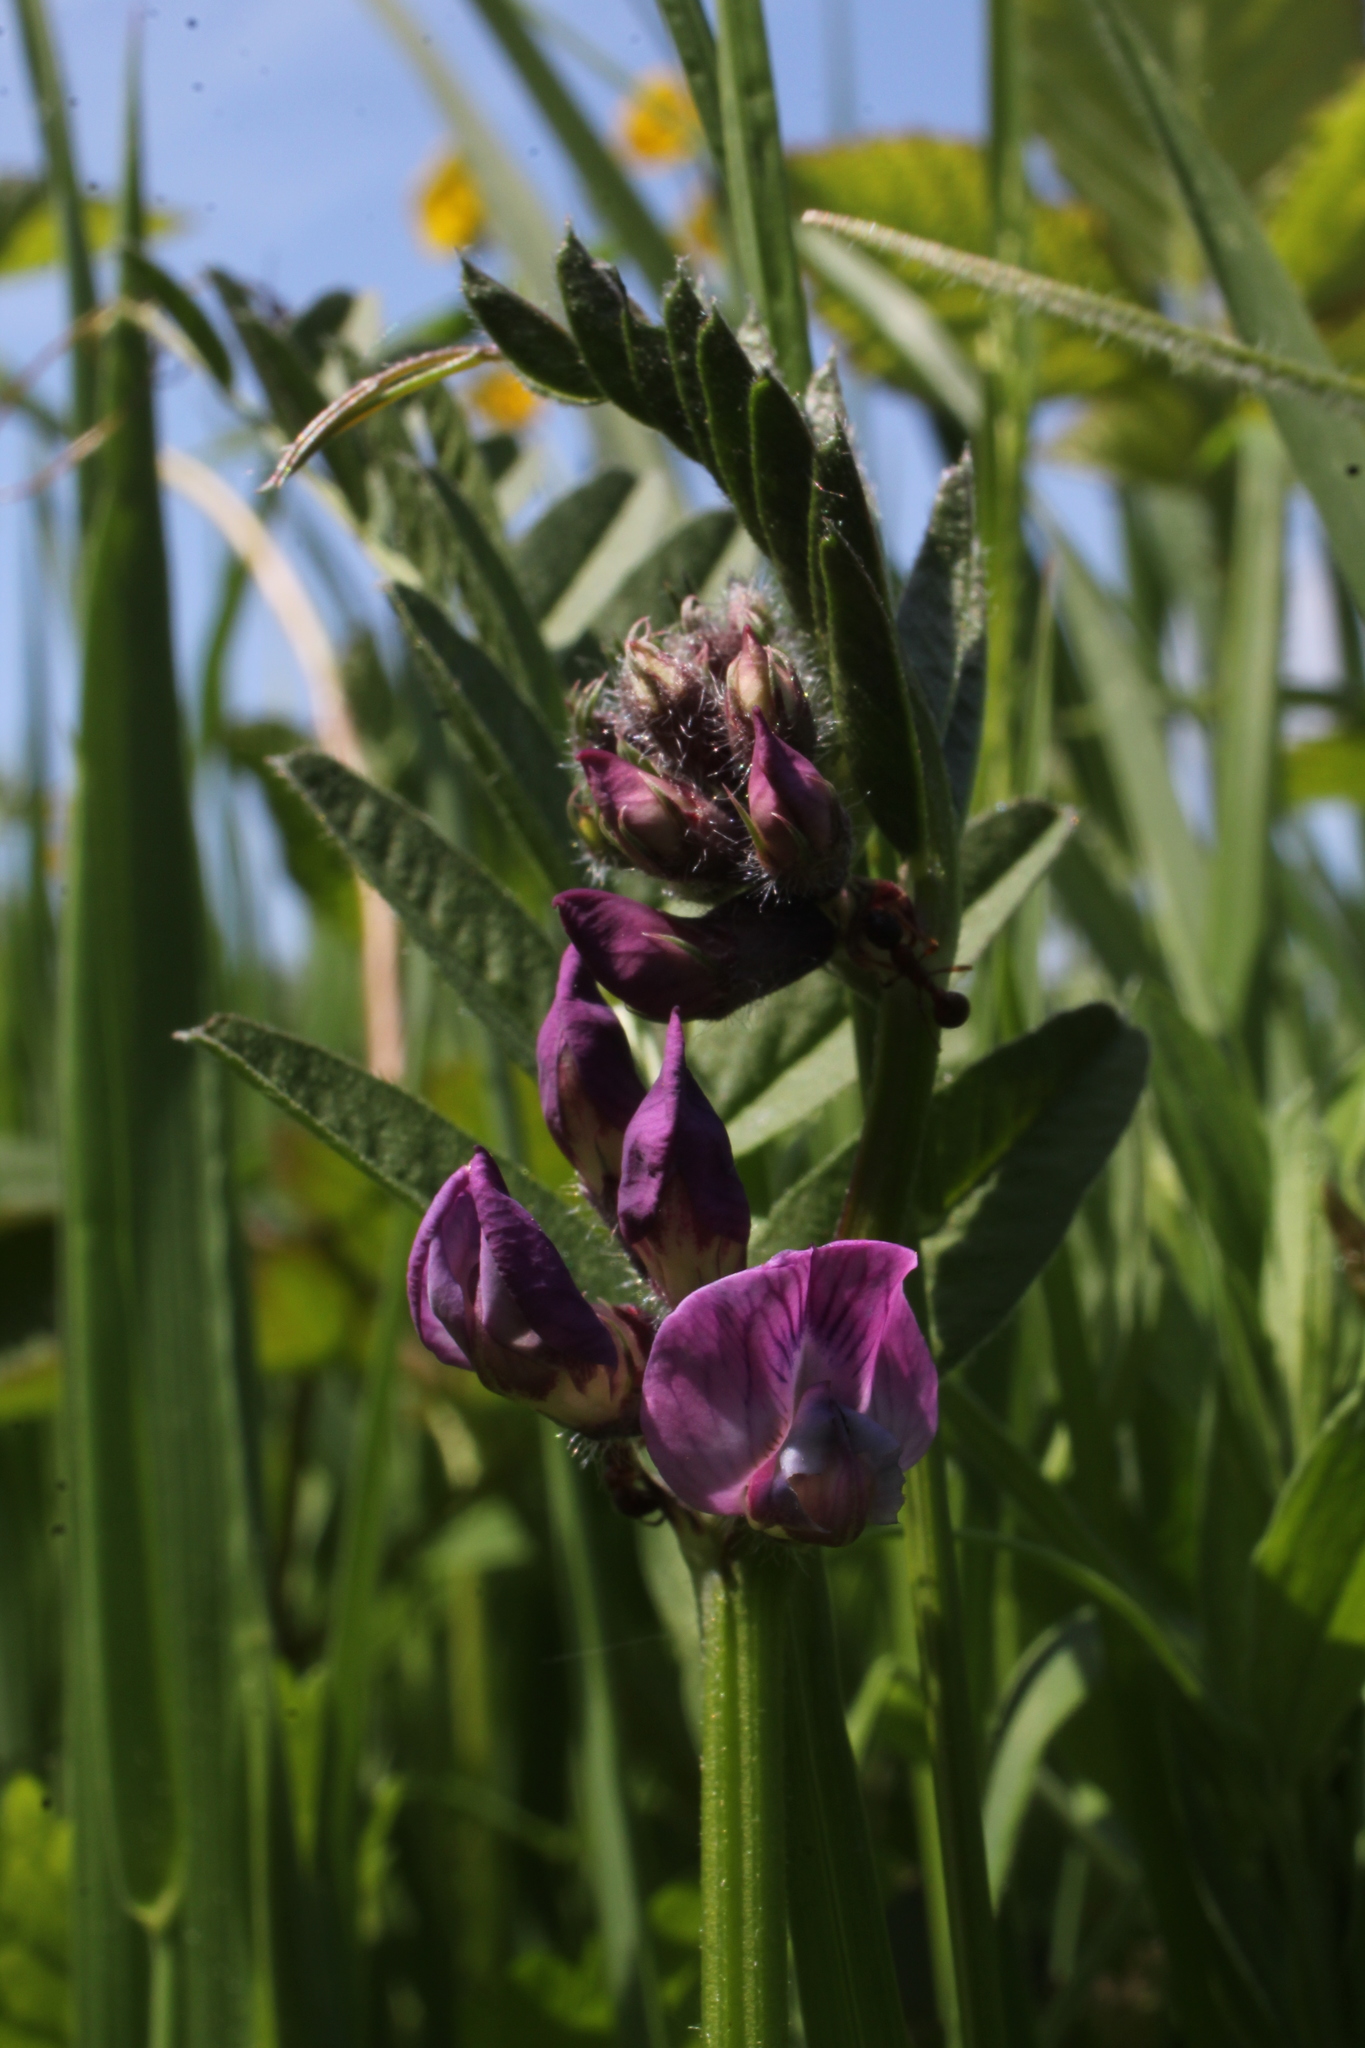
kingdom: Plantae
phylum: Tracheophyta
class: Magnoliopsida
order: Fabales
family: Fabaceae
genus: Vicia
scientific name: Vicia sepium
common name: Bush vetch
